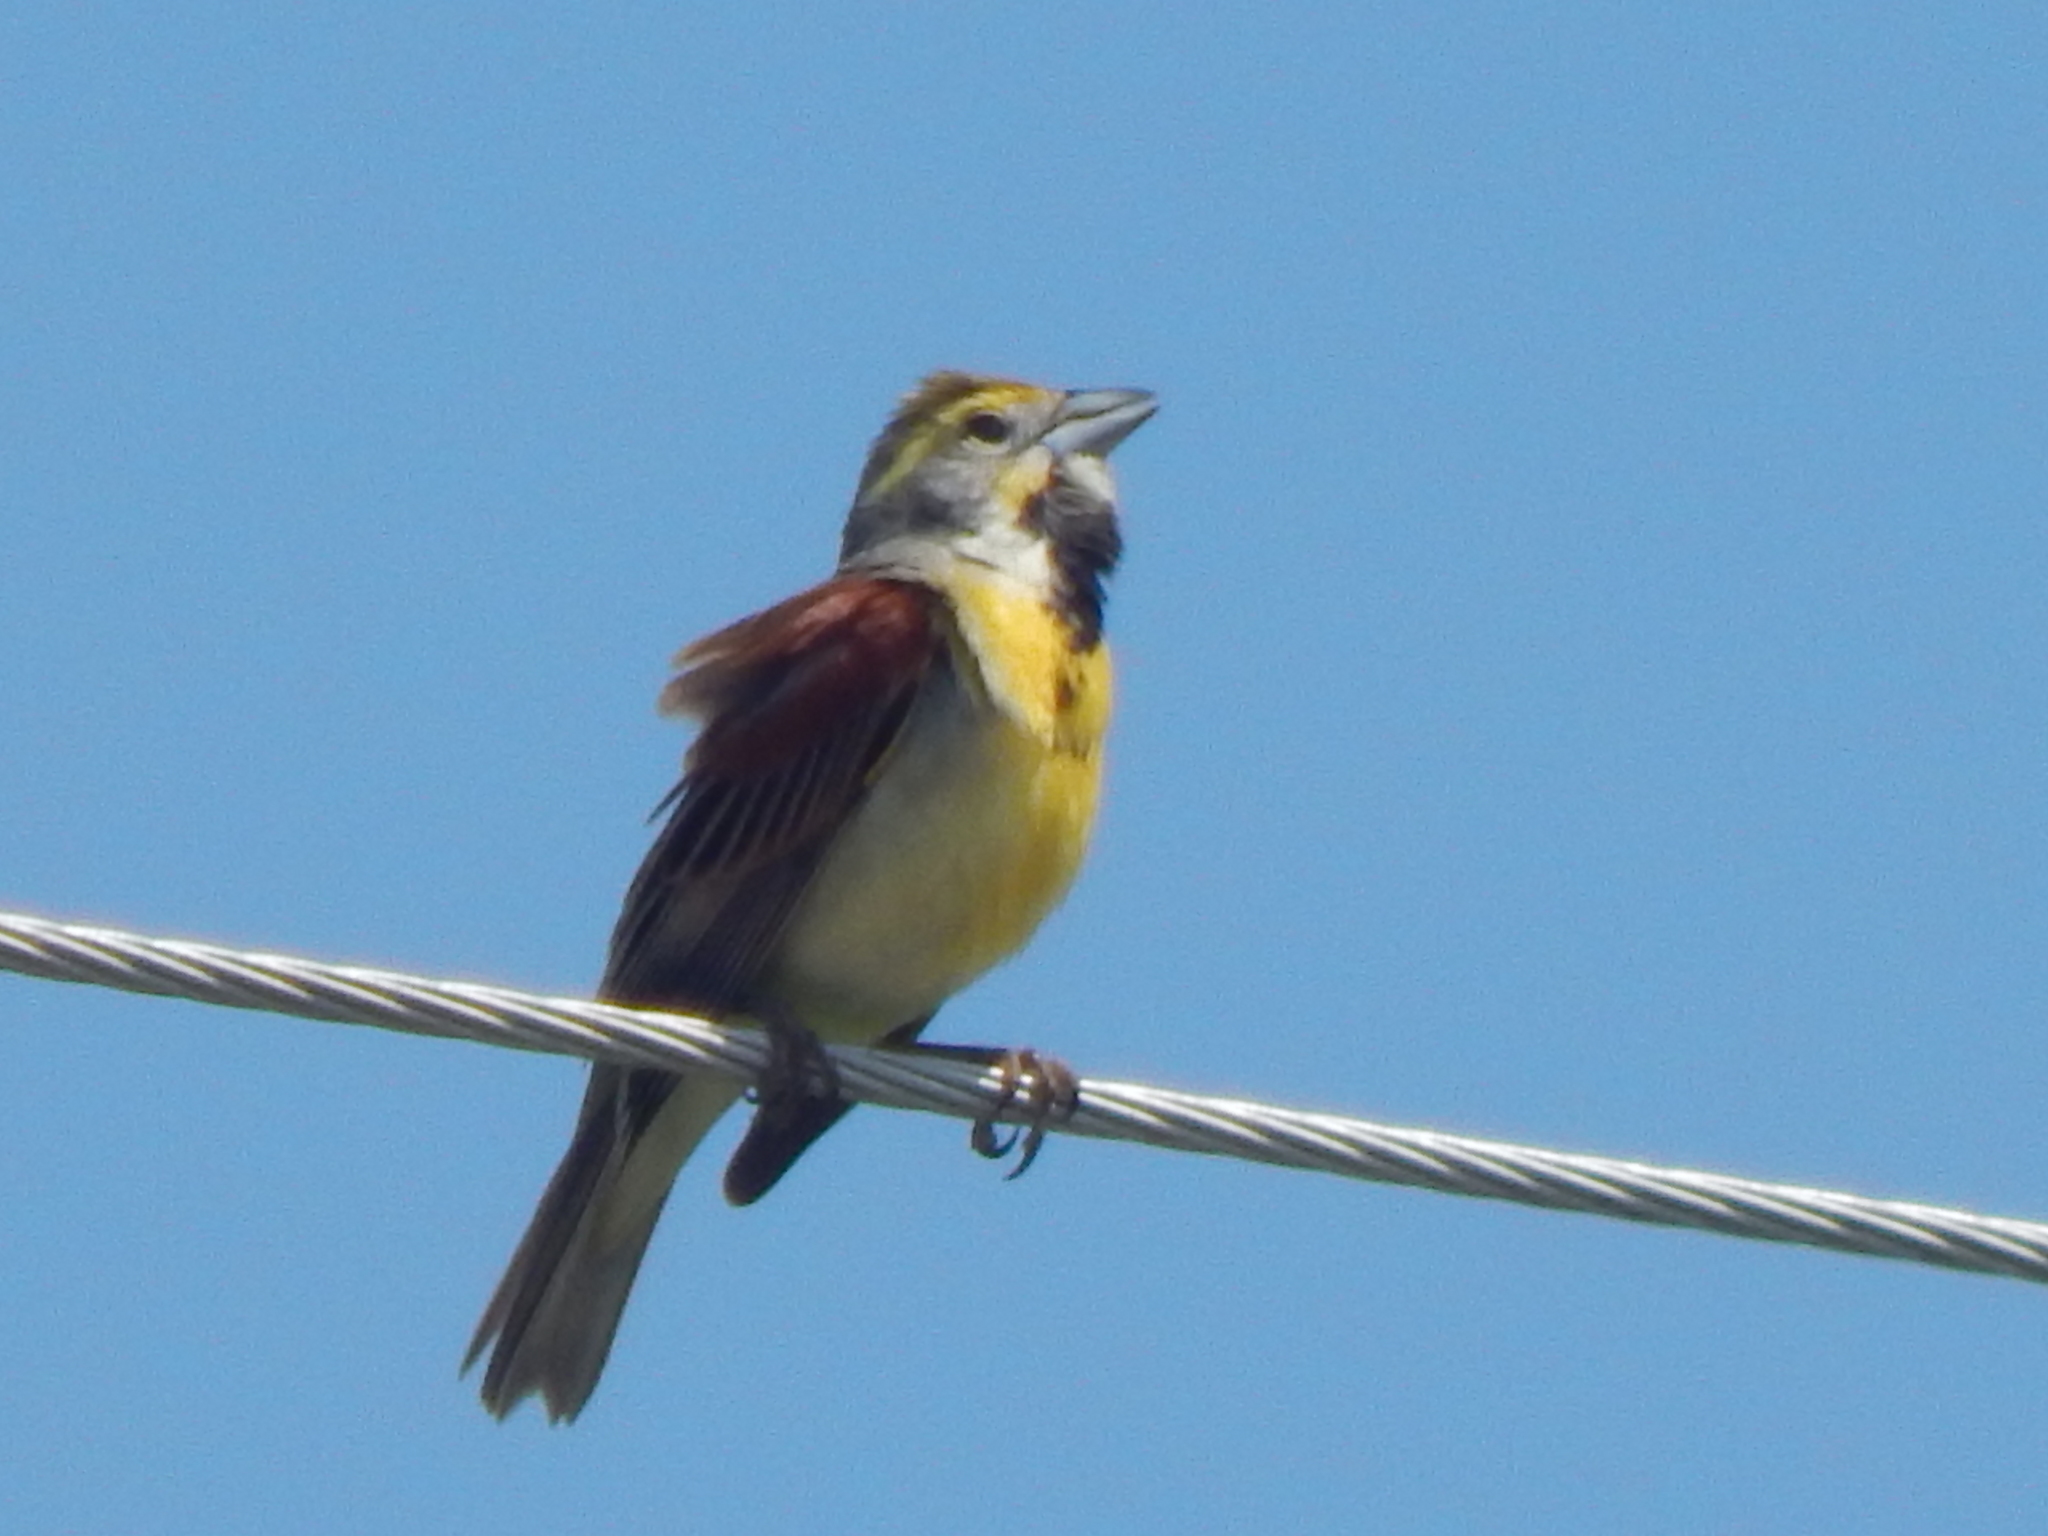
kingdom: Animalia
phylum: Chordata
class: Aves
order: Passeriformes
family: Cardinalidae
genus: Spiza
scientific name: Spiza americana
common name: Dickcissel
